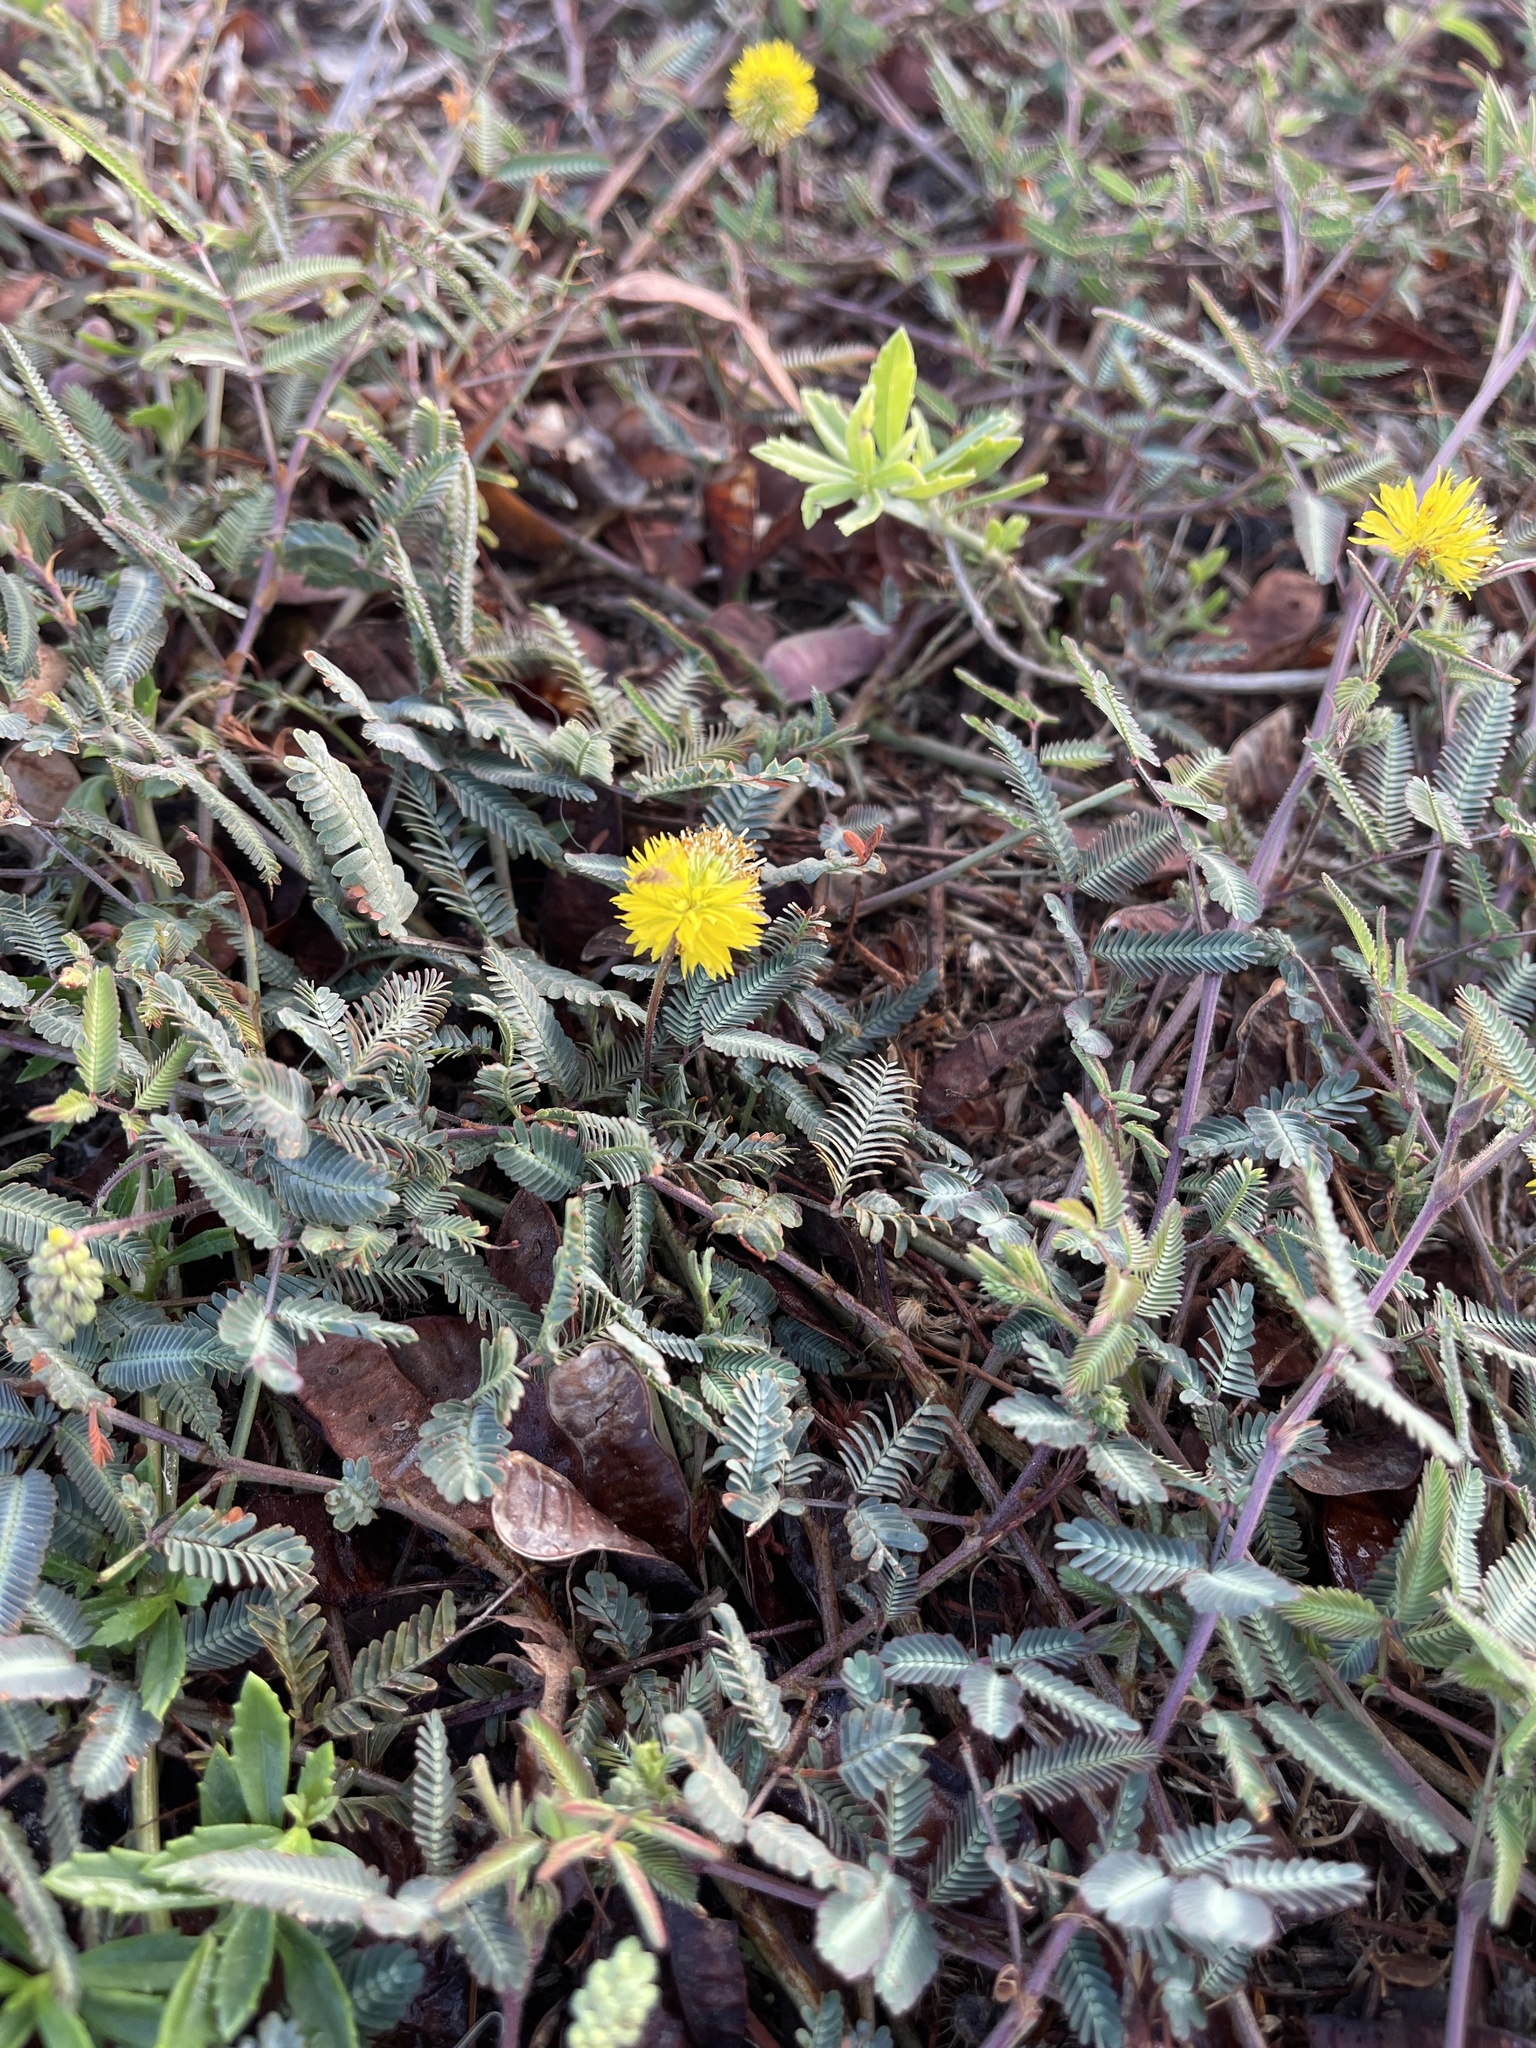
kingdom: Plantae
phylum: Tracheophyta
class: Magnoliopsida
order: Fabales
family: Fabaceae
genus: Neptunia
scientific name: Neptunia pubescens
